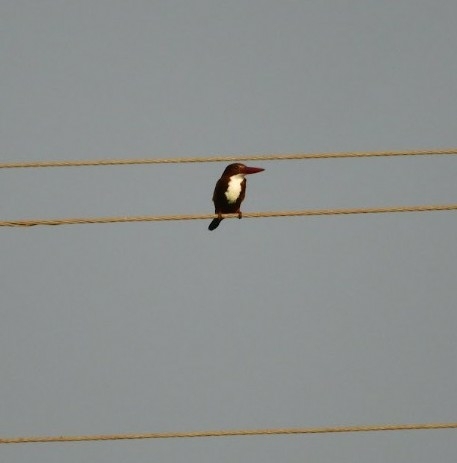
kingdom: Animalia
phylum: Chordata
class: Aves
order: Coraciiformes
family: Alcedinidae
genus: Halcyon
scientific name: Halcyon smyrnensis
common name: White-throated kingfisher
